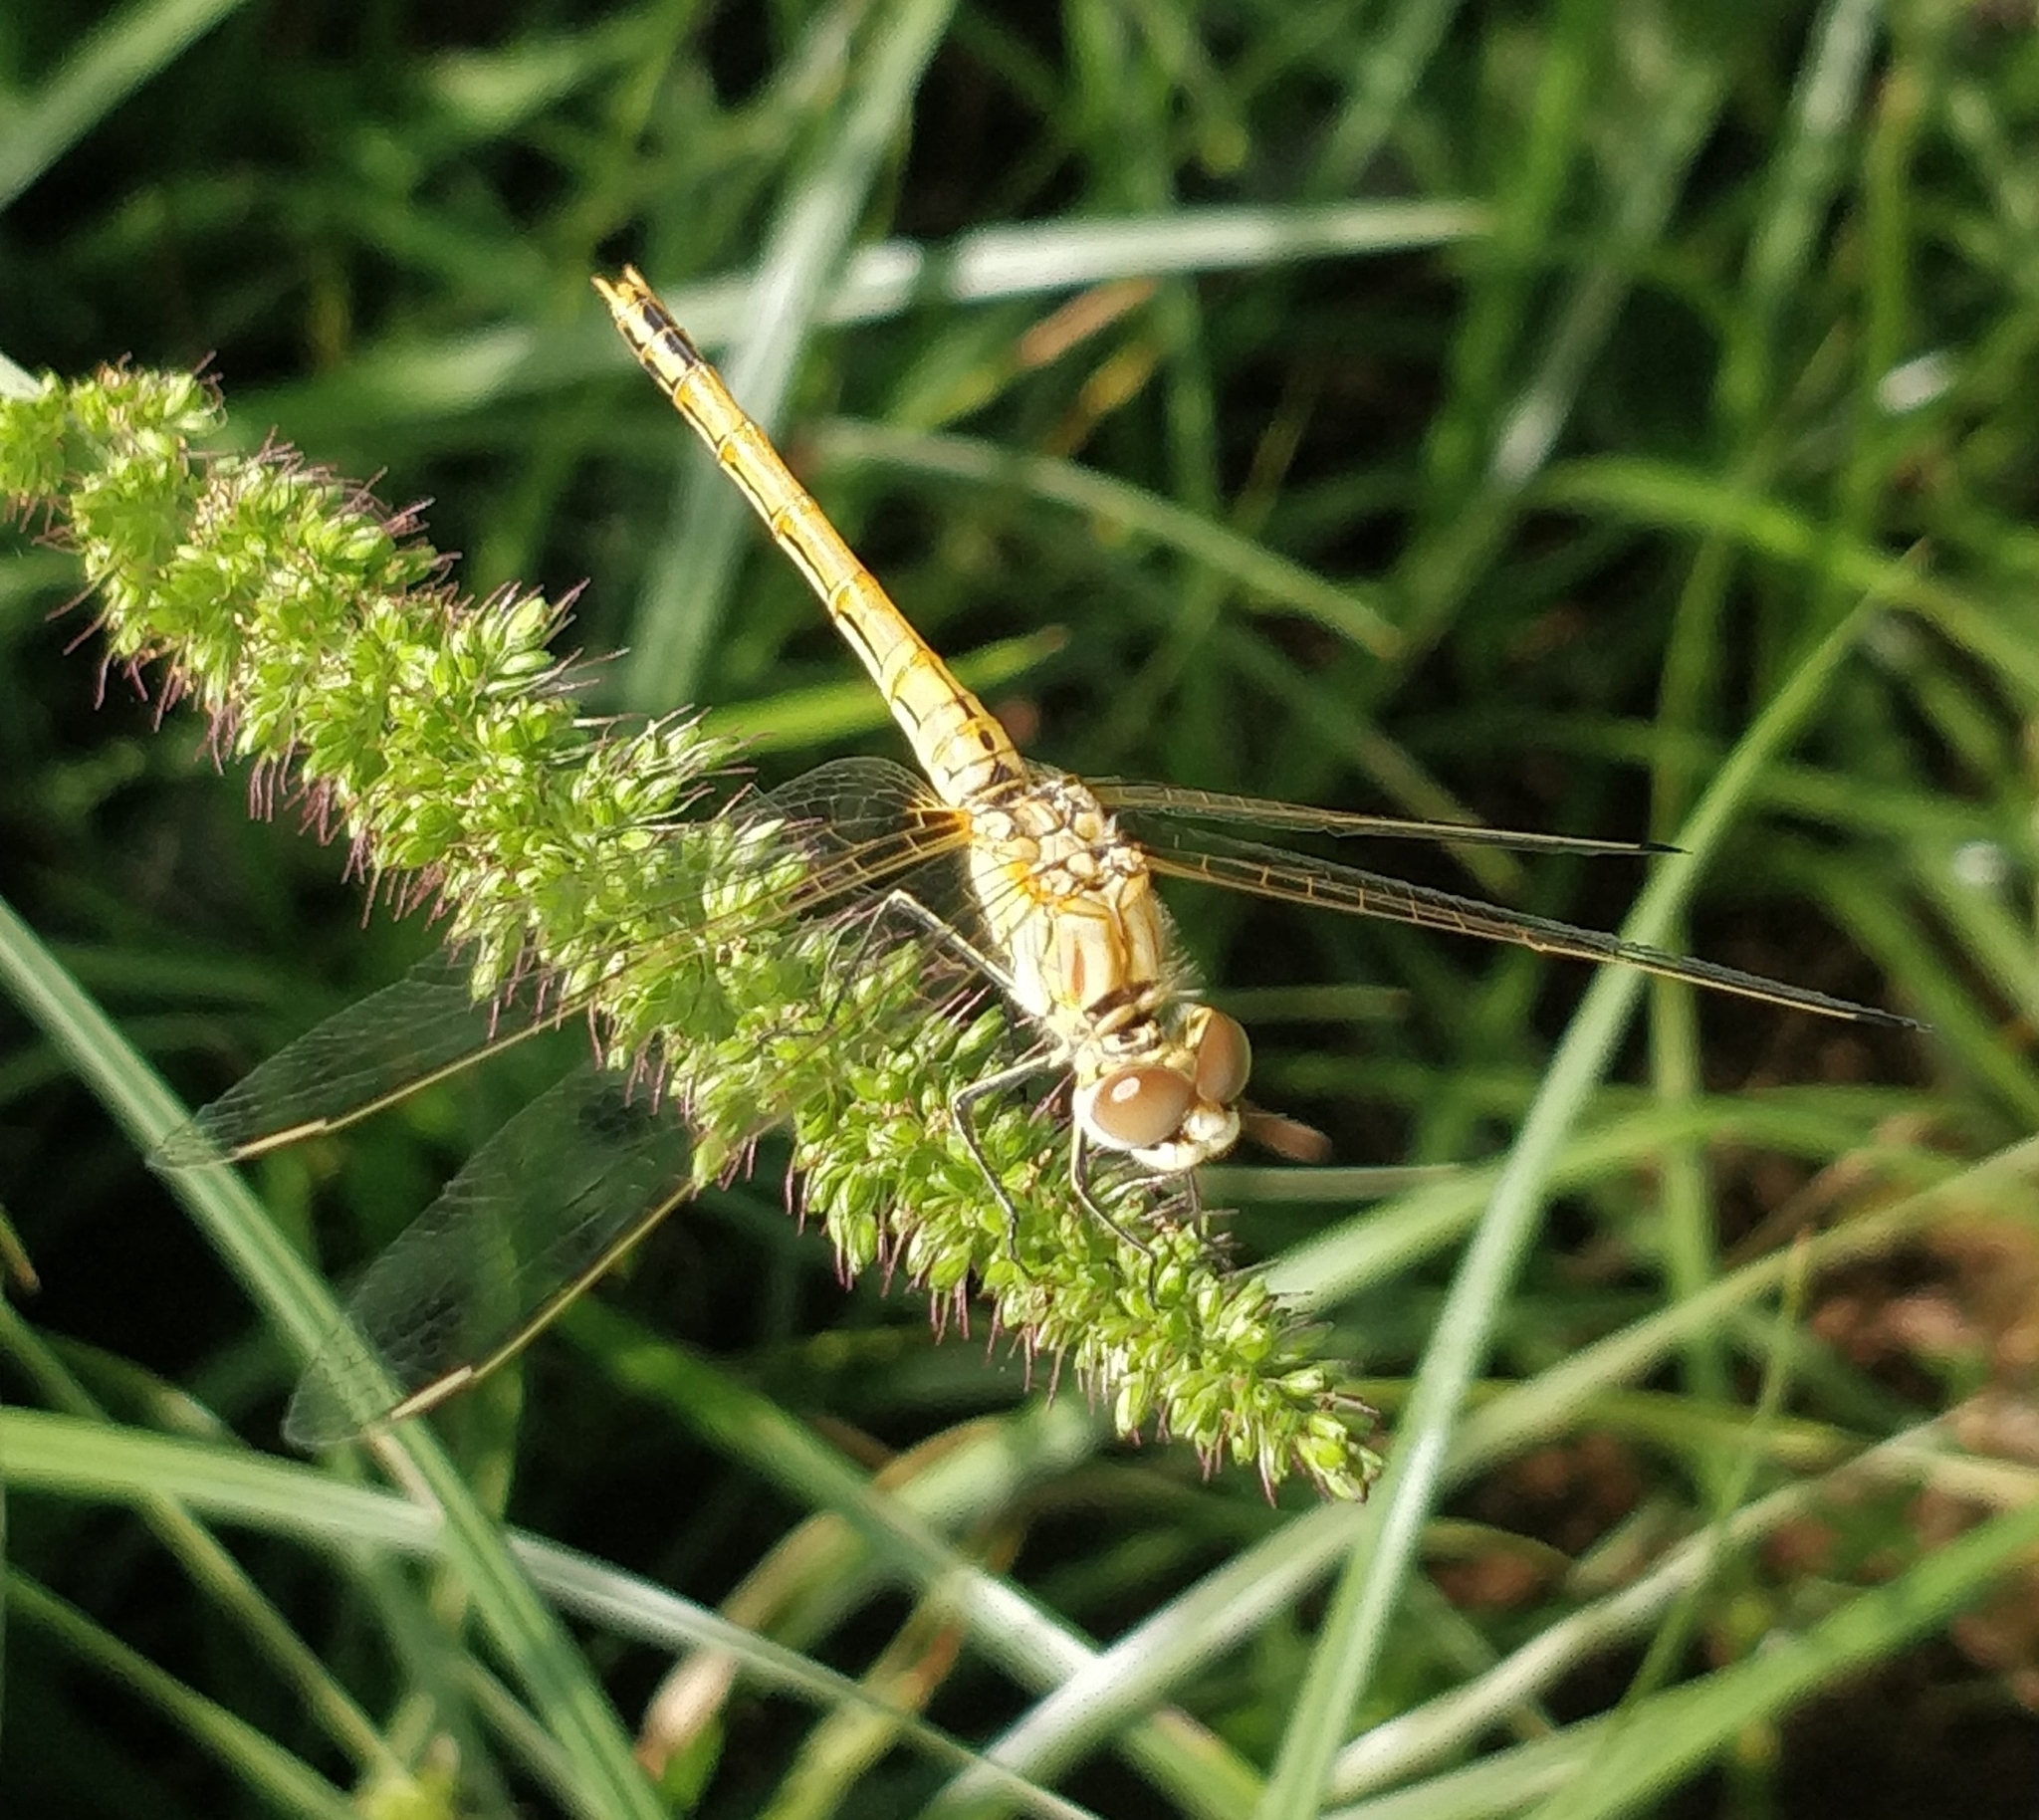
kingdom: Animalia
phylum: Arthropoda
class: Insecta
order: Odonata
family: Libellulidae
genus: Sympetrum
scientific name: Sympetrum fonscolombii
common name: Red-veined darter
